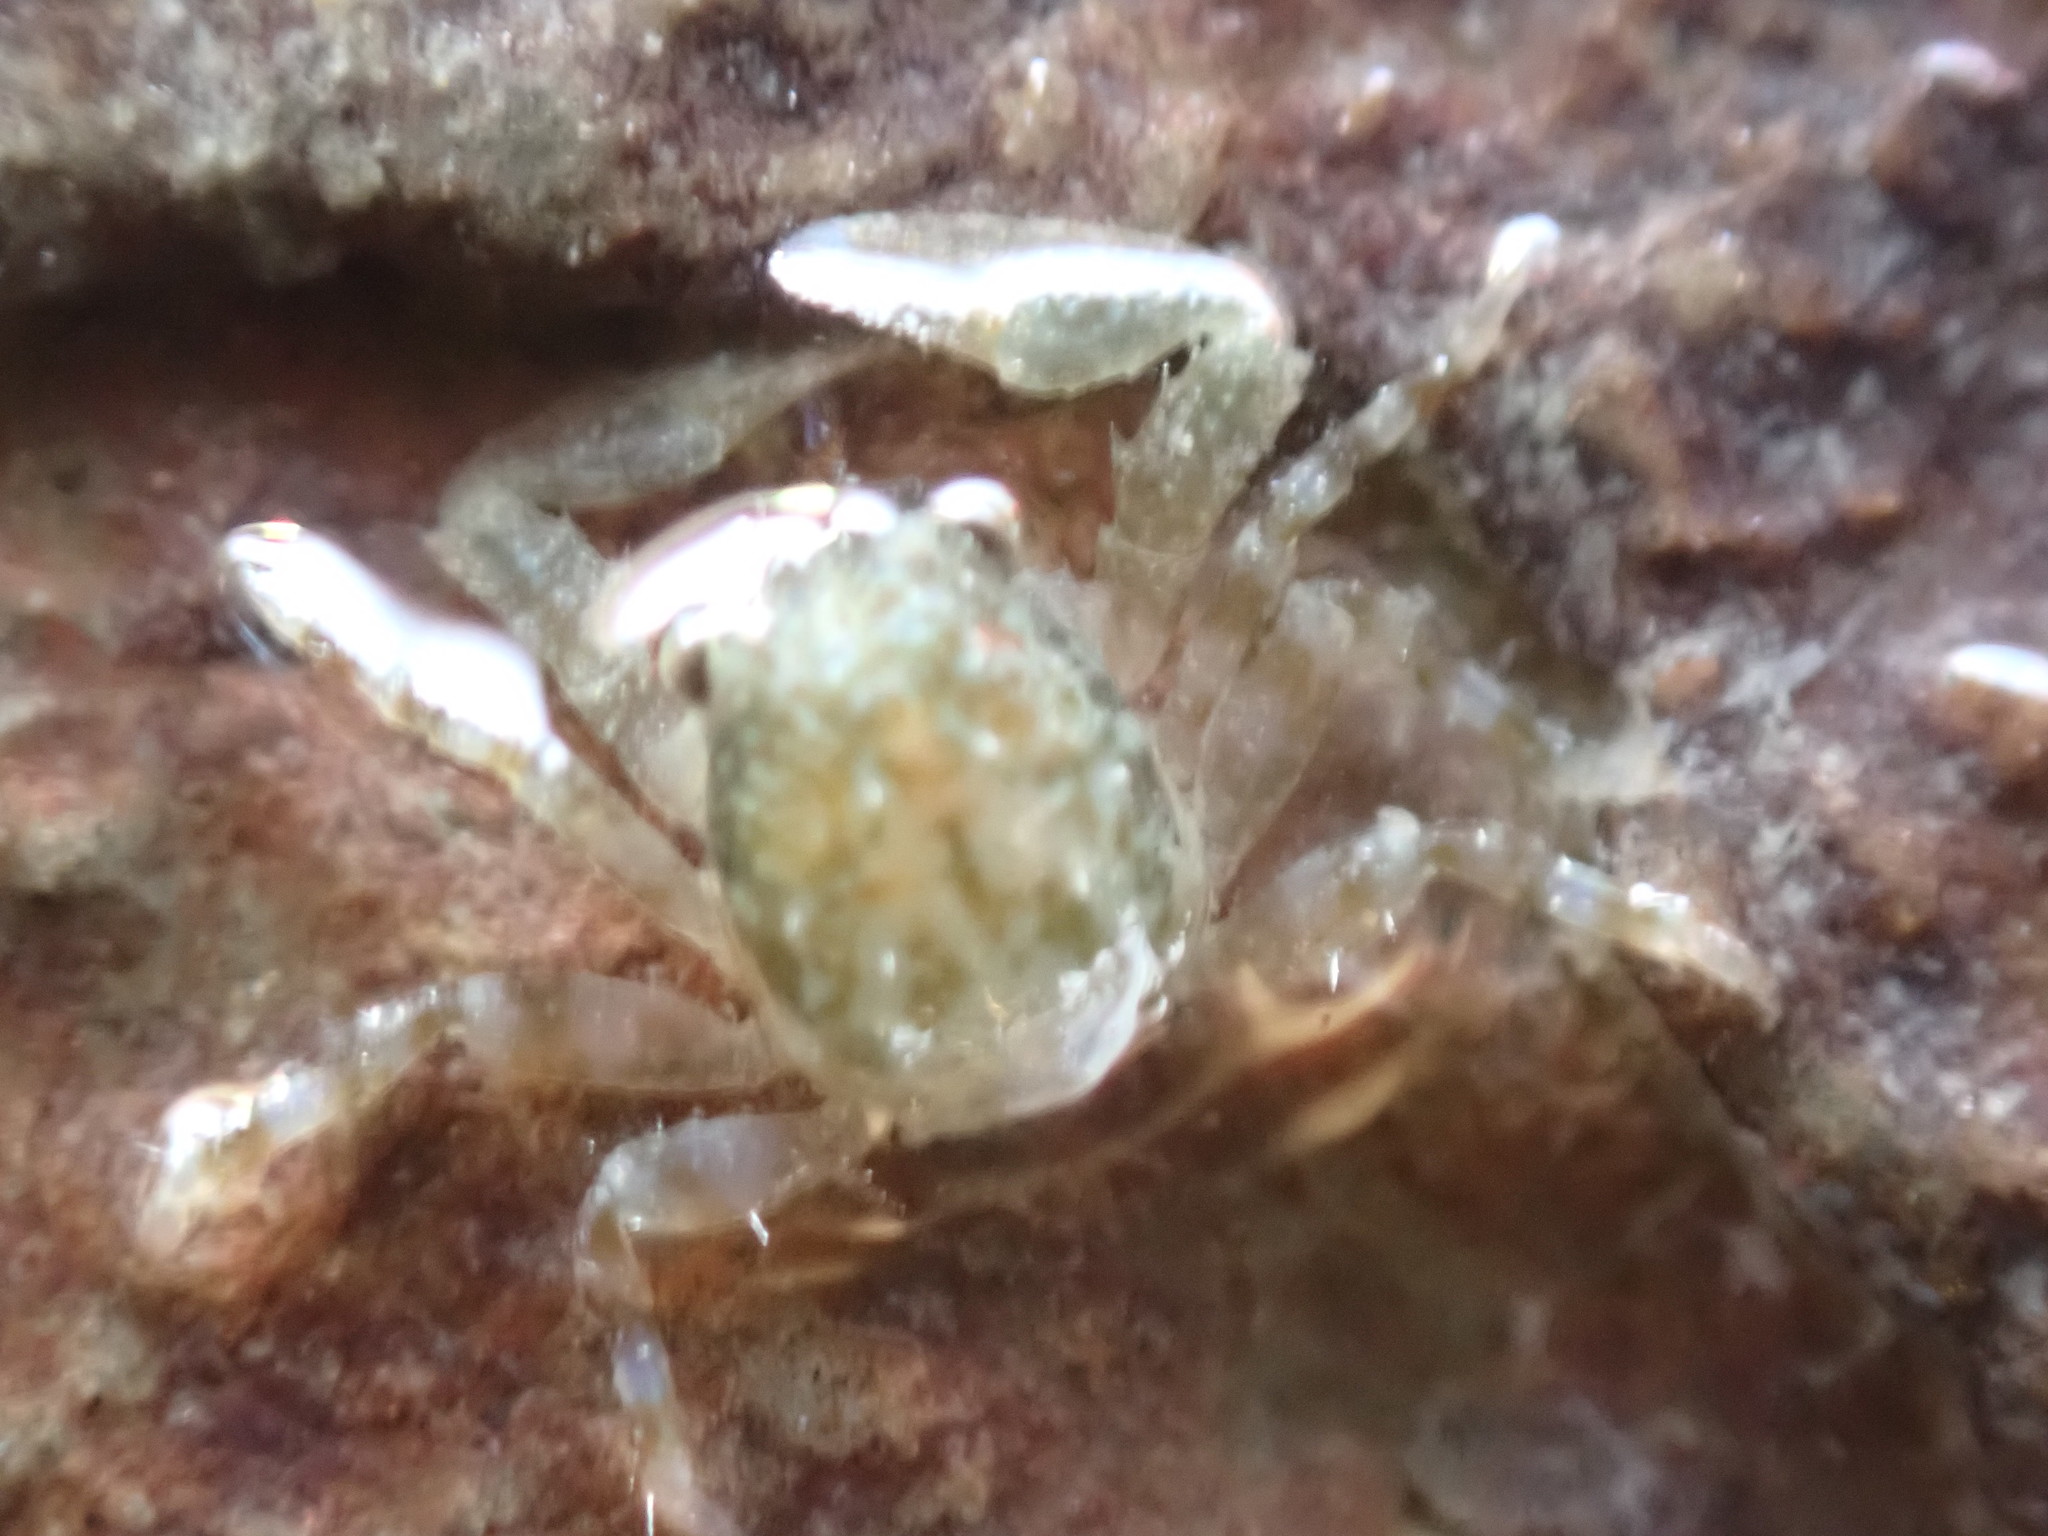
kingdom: Animalia
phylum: Arthropoda
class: Malacostraca
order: Decapoda
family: Porcellanidae
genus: Petrocheles
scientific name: Petrocheles spinosus
